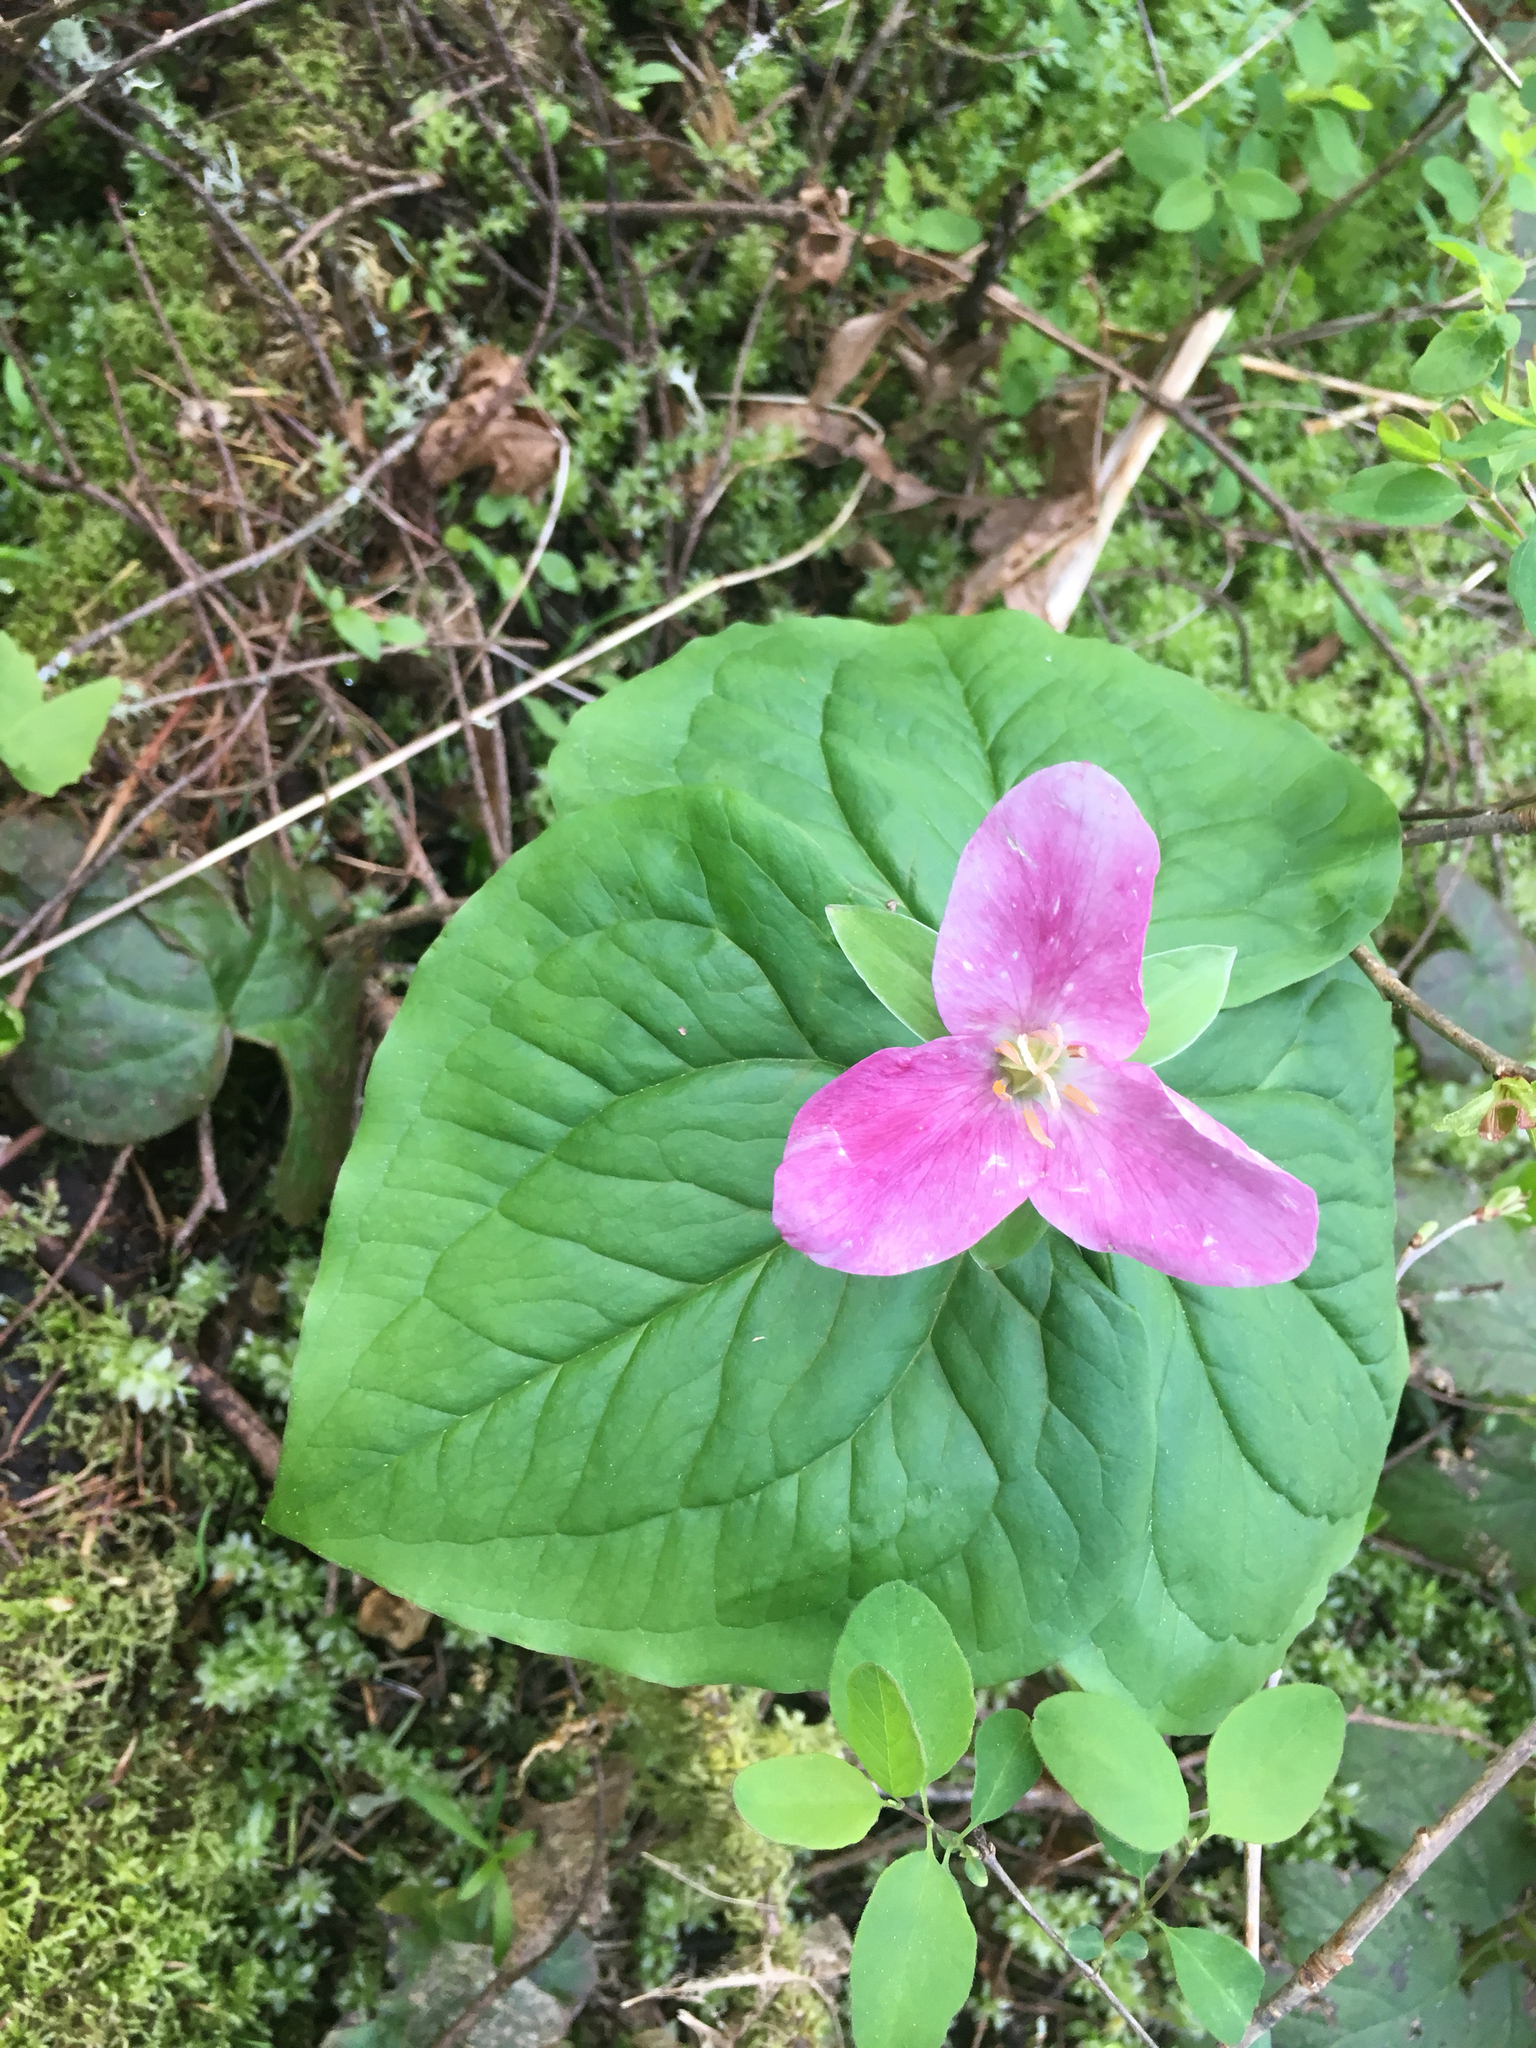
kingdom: Plantae
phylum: Tracheophyta
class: Liliopsida
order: Liliales
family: Melanthiaceae
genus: Trillium
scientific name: Trillium ovatum
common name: Pacific trillium
